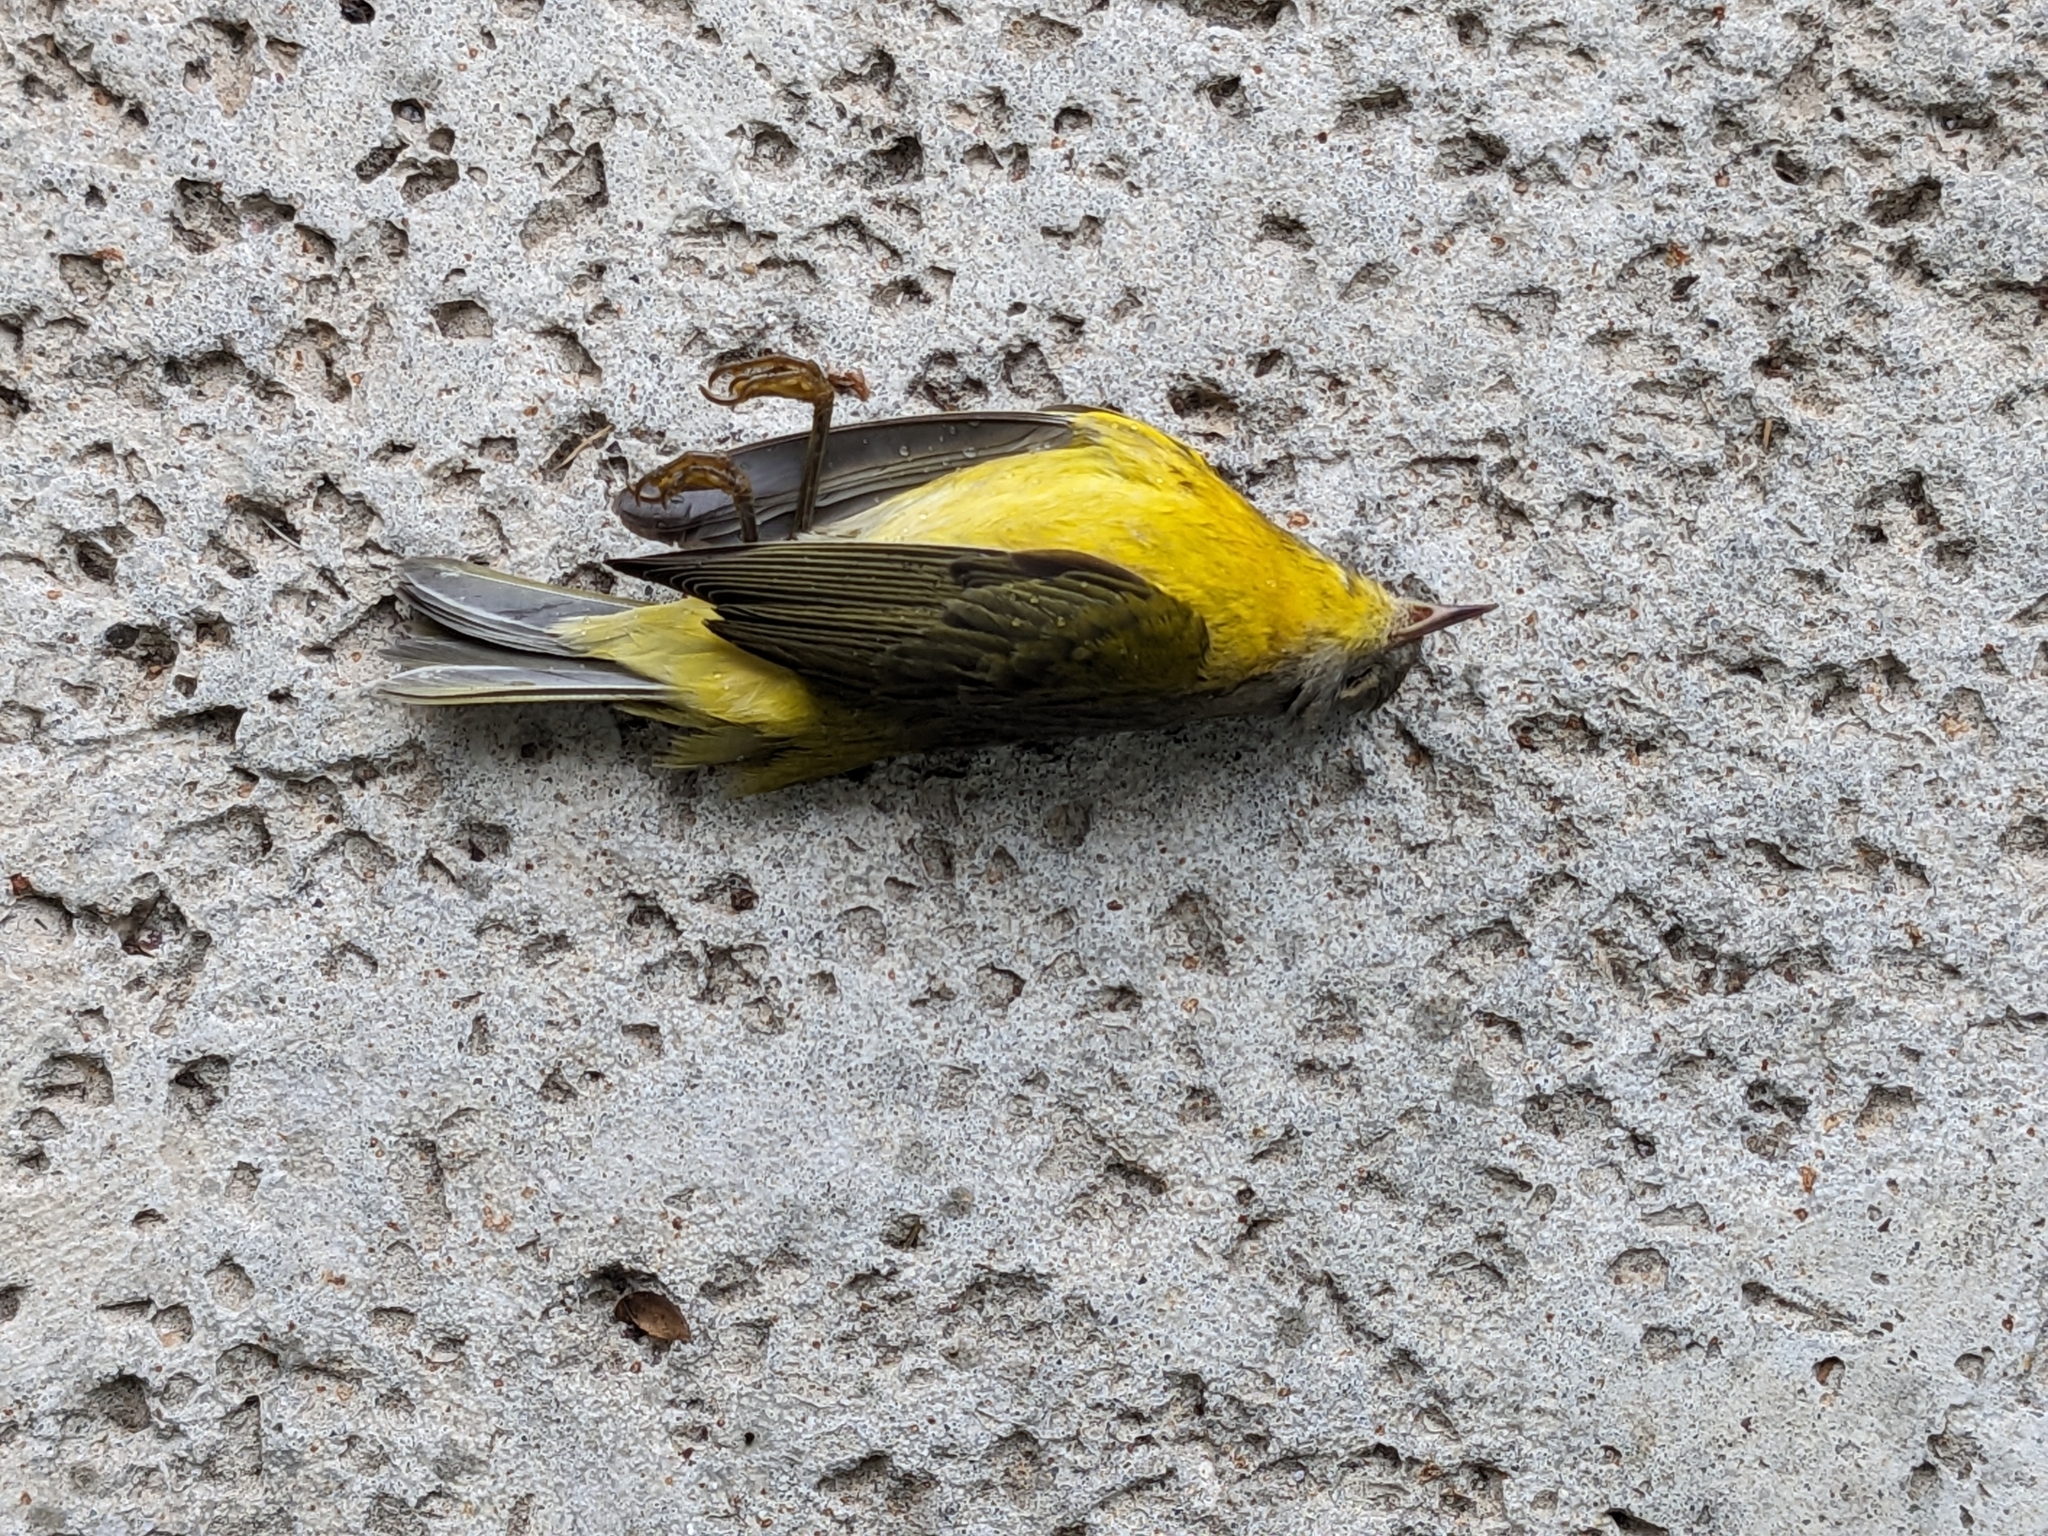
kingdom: Animalia
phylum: Chordata
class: Aves
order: Passeriformes
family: Parulidae
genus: Leiothlypis
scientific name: Leiothlypis ruficapilla
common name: Nashville warbler
